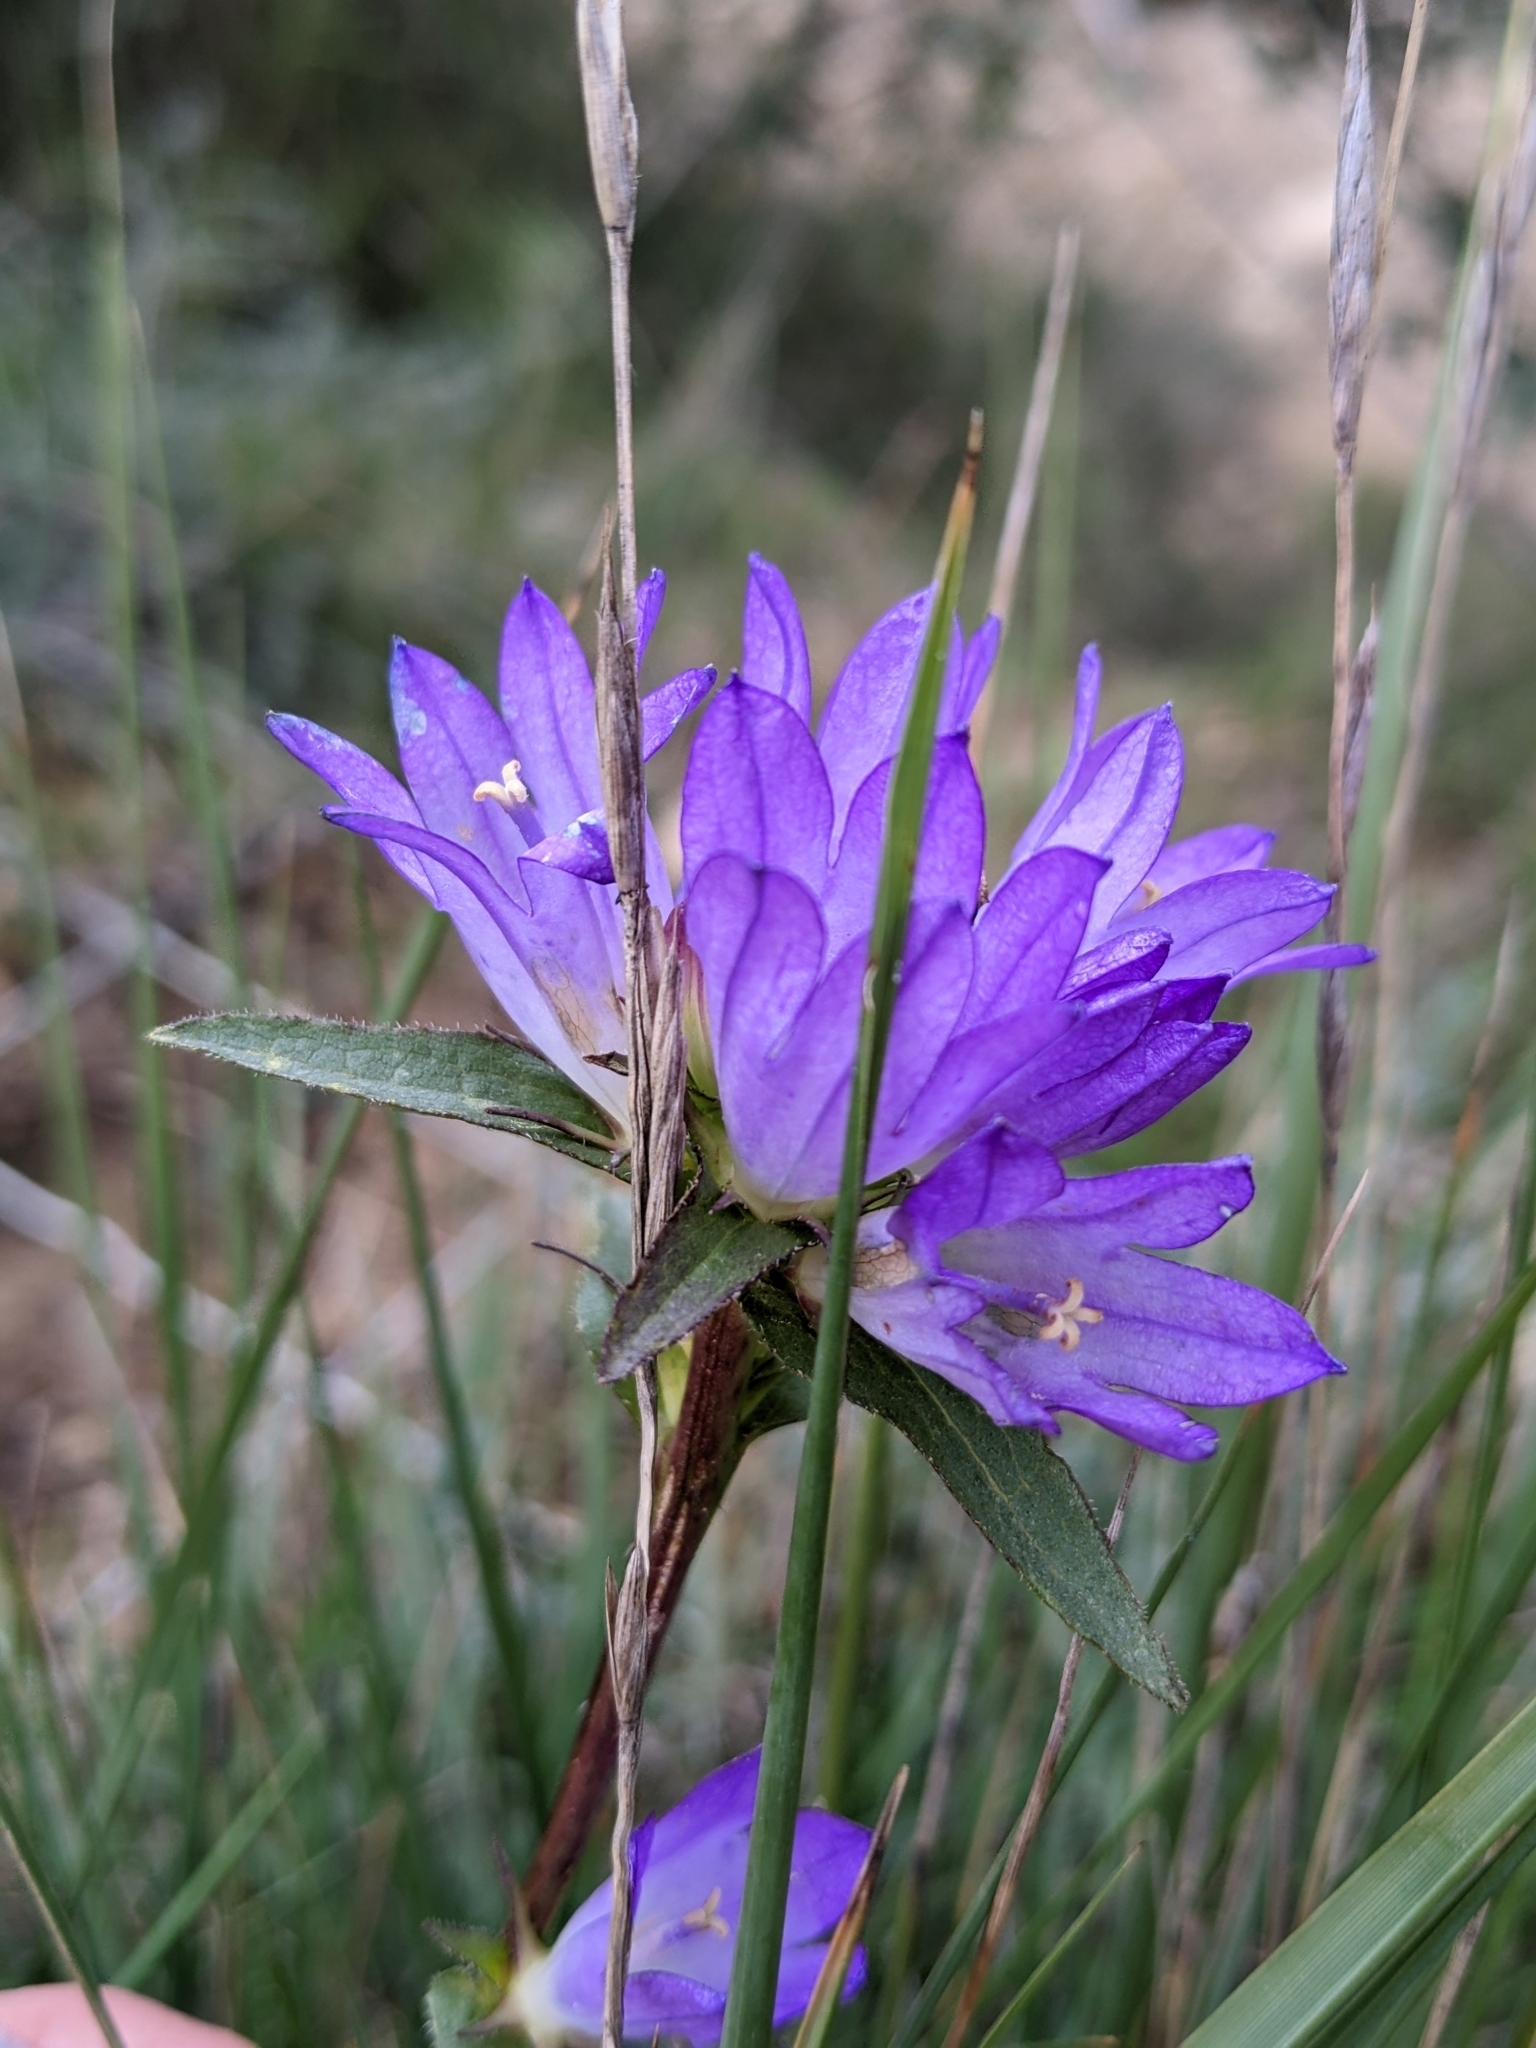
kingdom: Plantae
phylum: Tracheophyta
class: Magnoliopsida
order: Asterales
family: Campanulaceae
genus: Campanula
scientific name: Campanula glomerata
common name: Clustered bellflower
